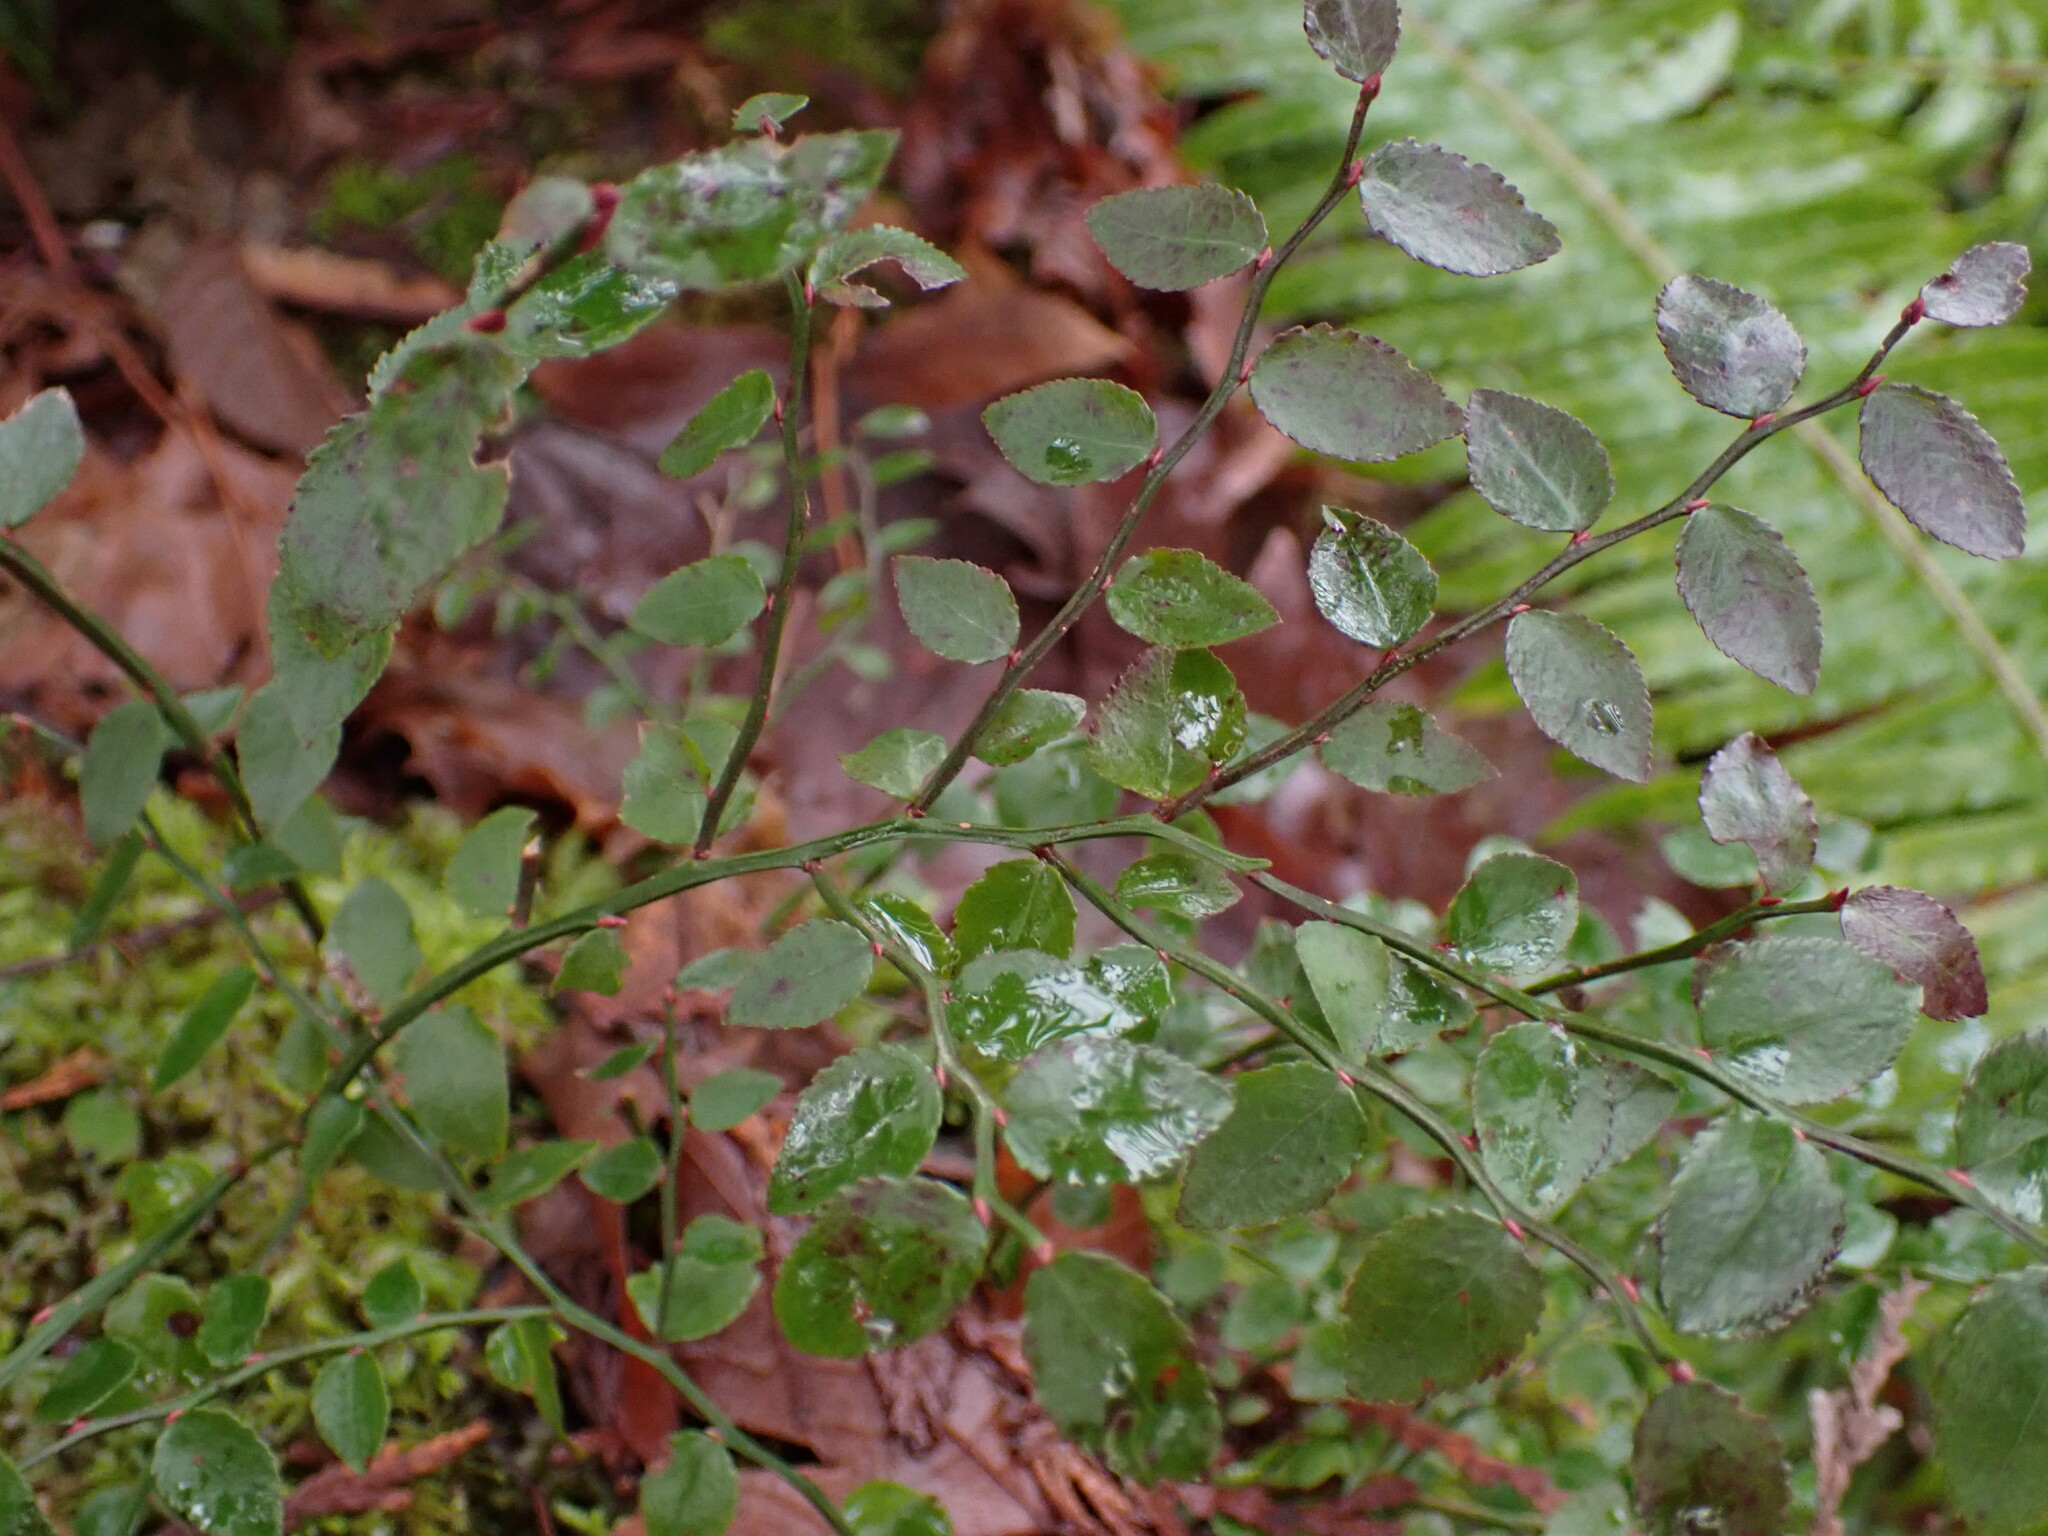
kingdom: Plantae
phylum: Tracheophyta
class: Magnoliopsida
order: Ericales
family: Ericaceae
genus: Vaccinium
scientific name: Vaccinium parvifolium
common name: Red-huckleberry
